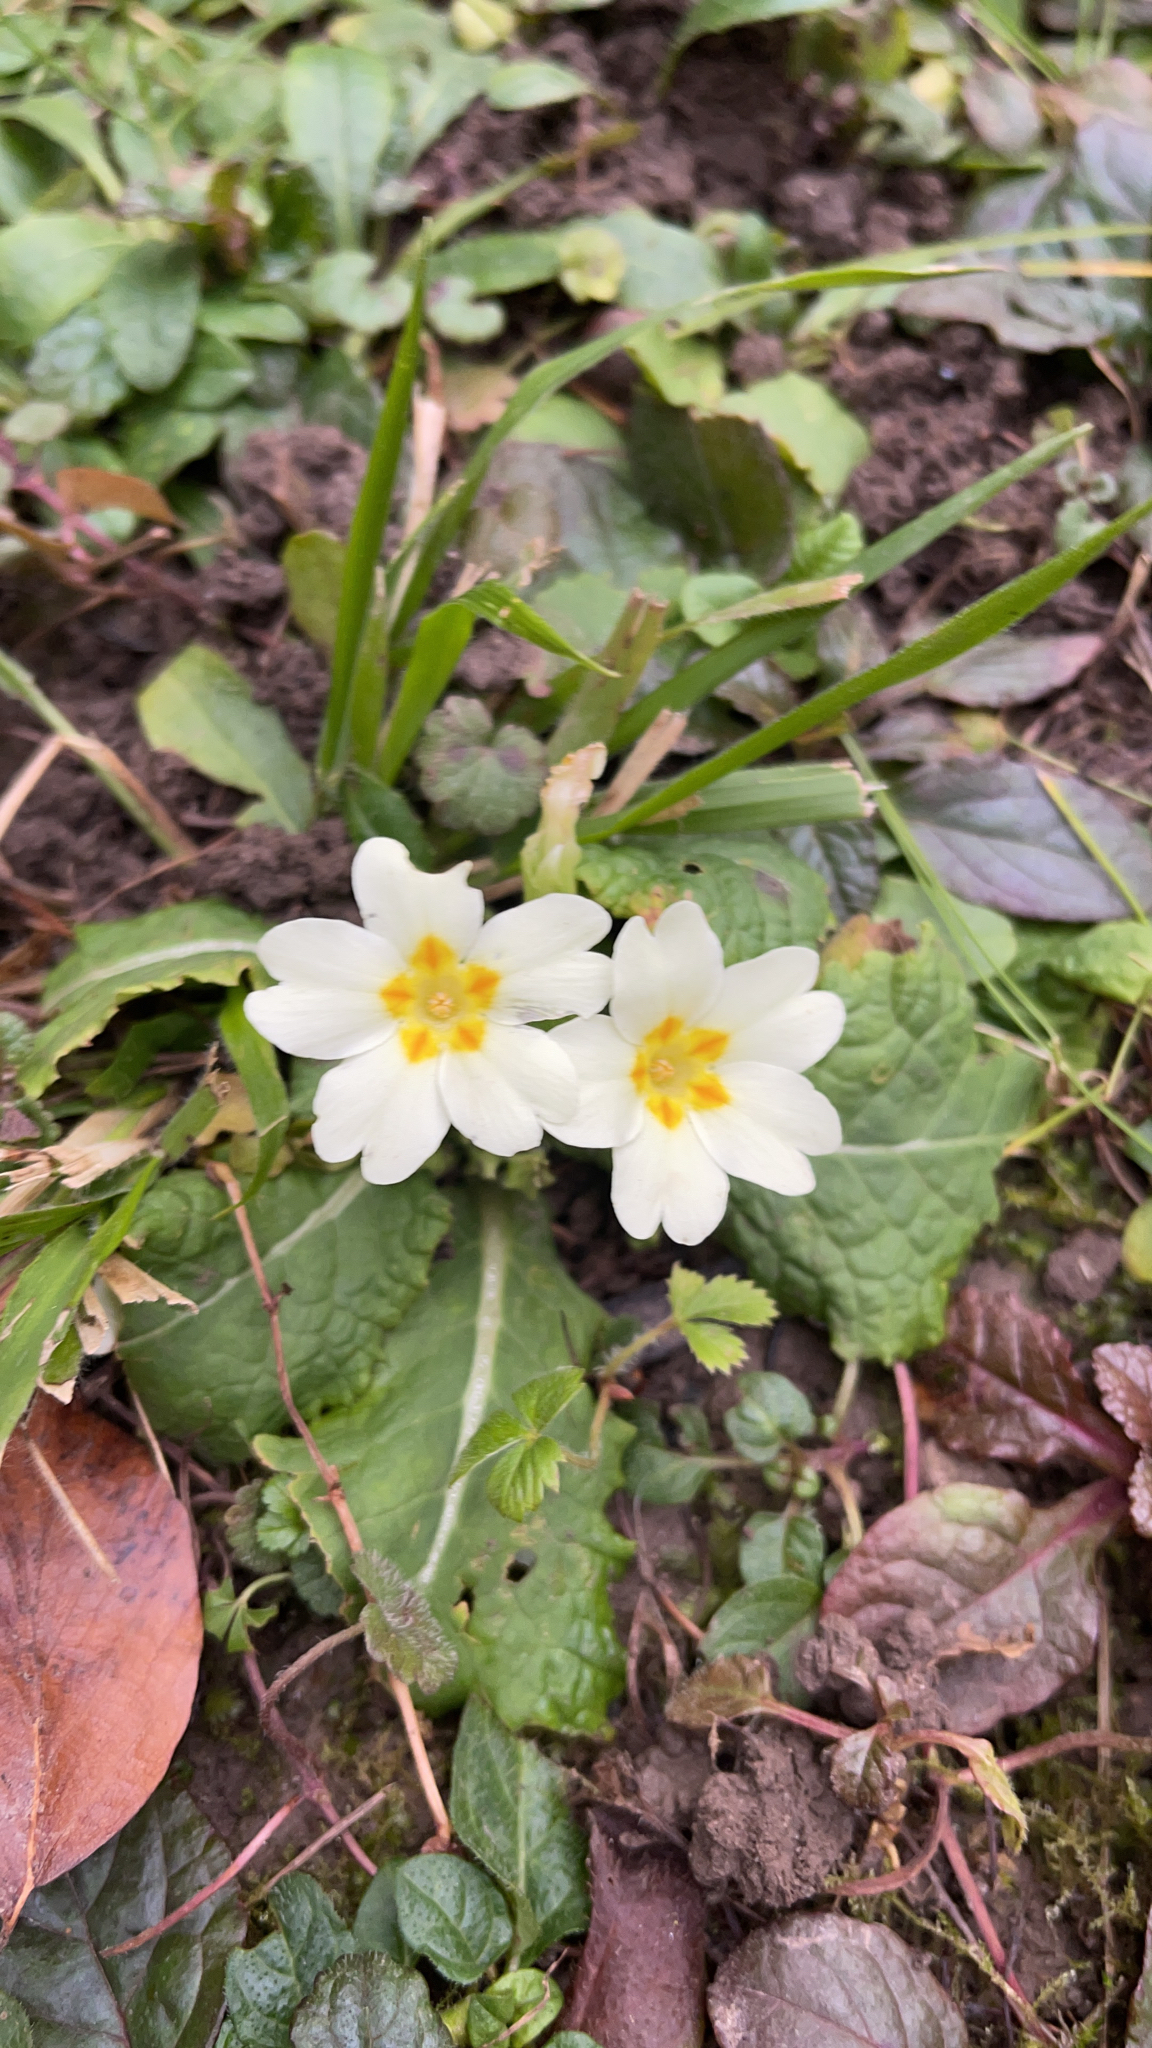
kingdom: Plantae
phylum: Tracheophyta
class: Magnoliopsida
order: Ericales
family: Primulaceae
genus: Primula
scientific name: Primula vulgaris
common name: Primrose
